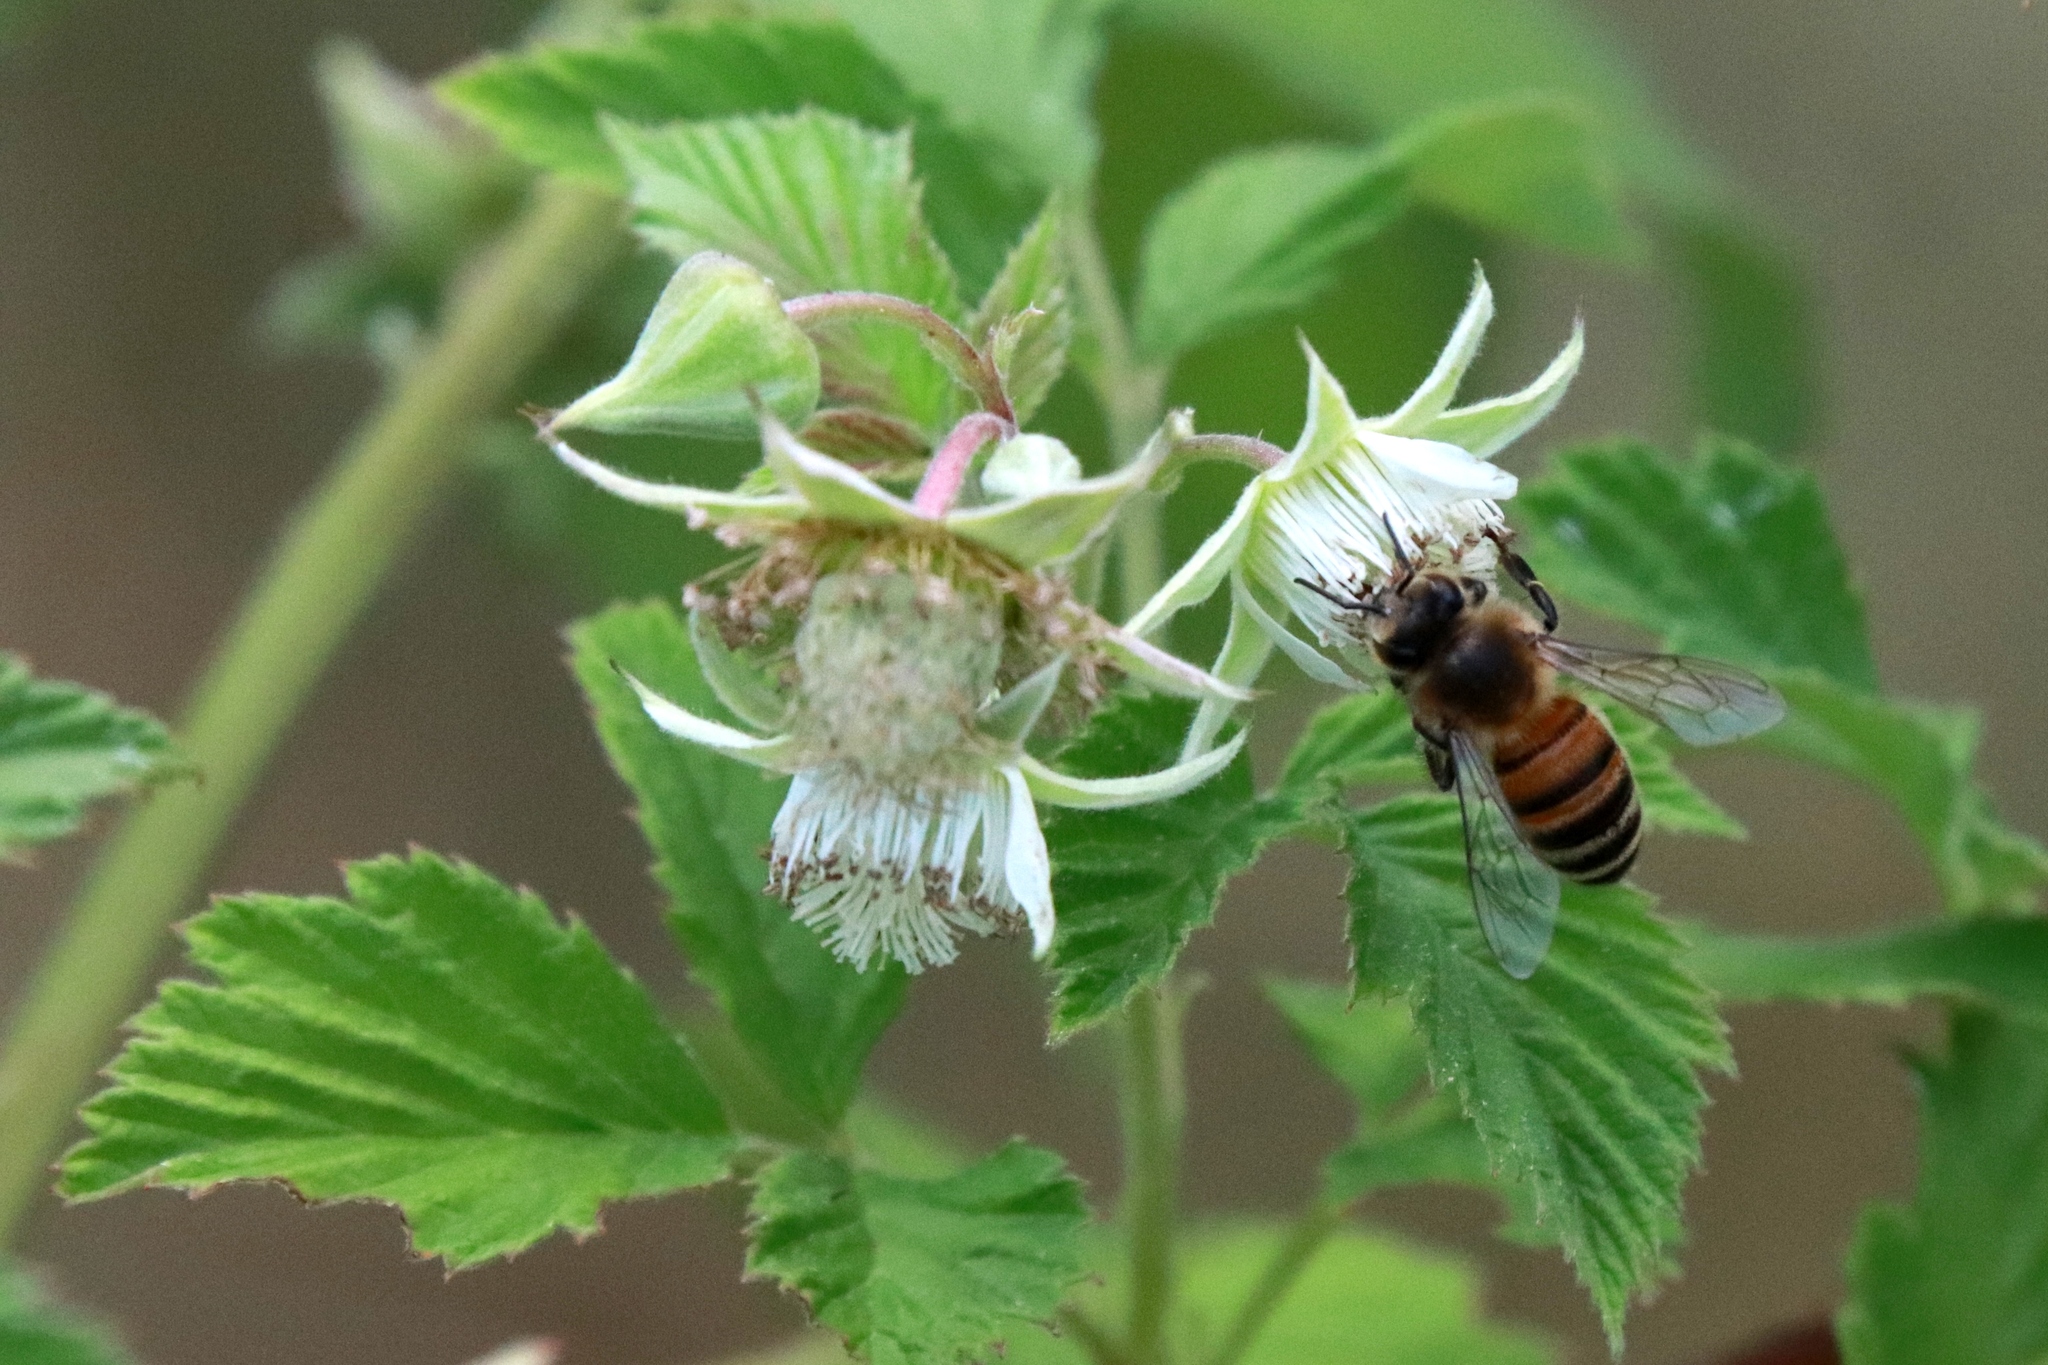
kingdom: Animalia
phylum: Arthropoda
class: Insecta
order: Hymenoptera
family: Apidae
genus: Apis
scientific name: Apis mellifera
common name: Honey bee
